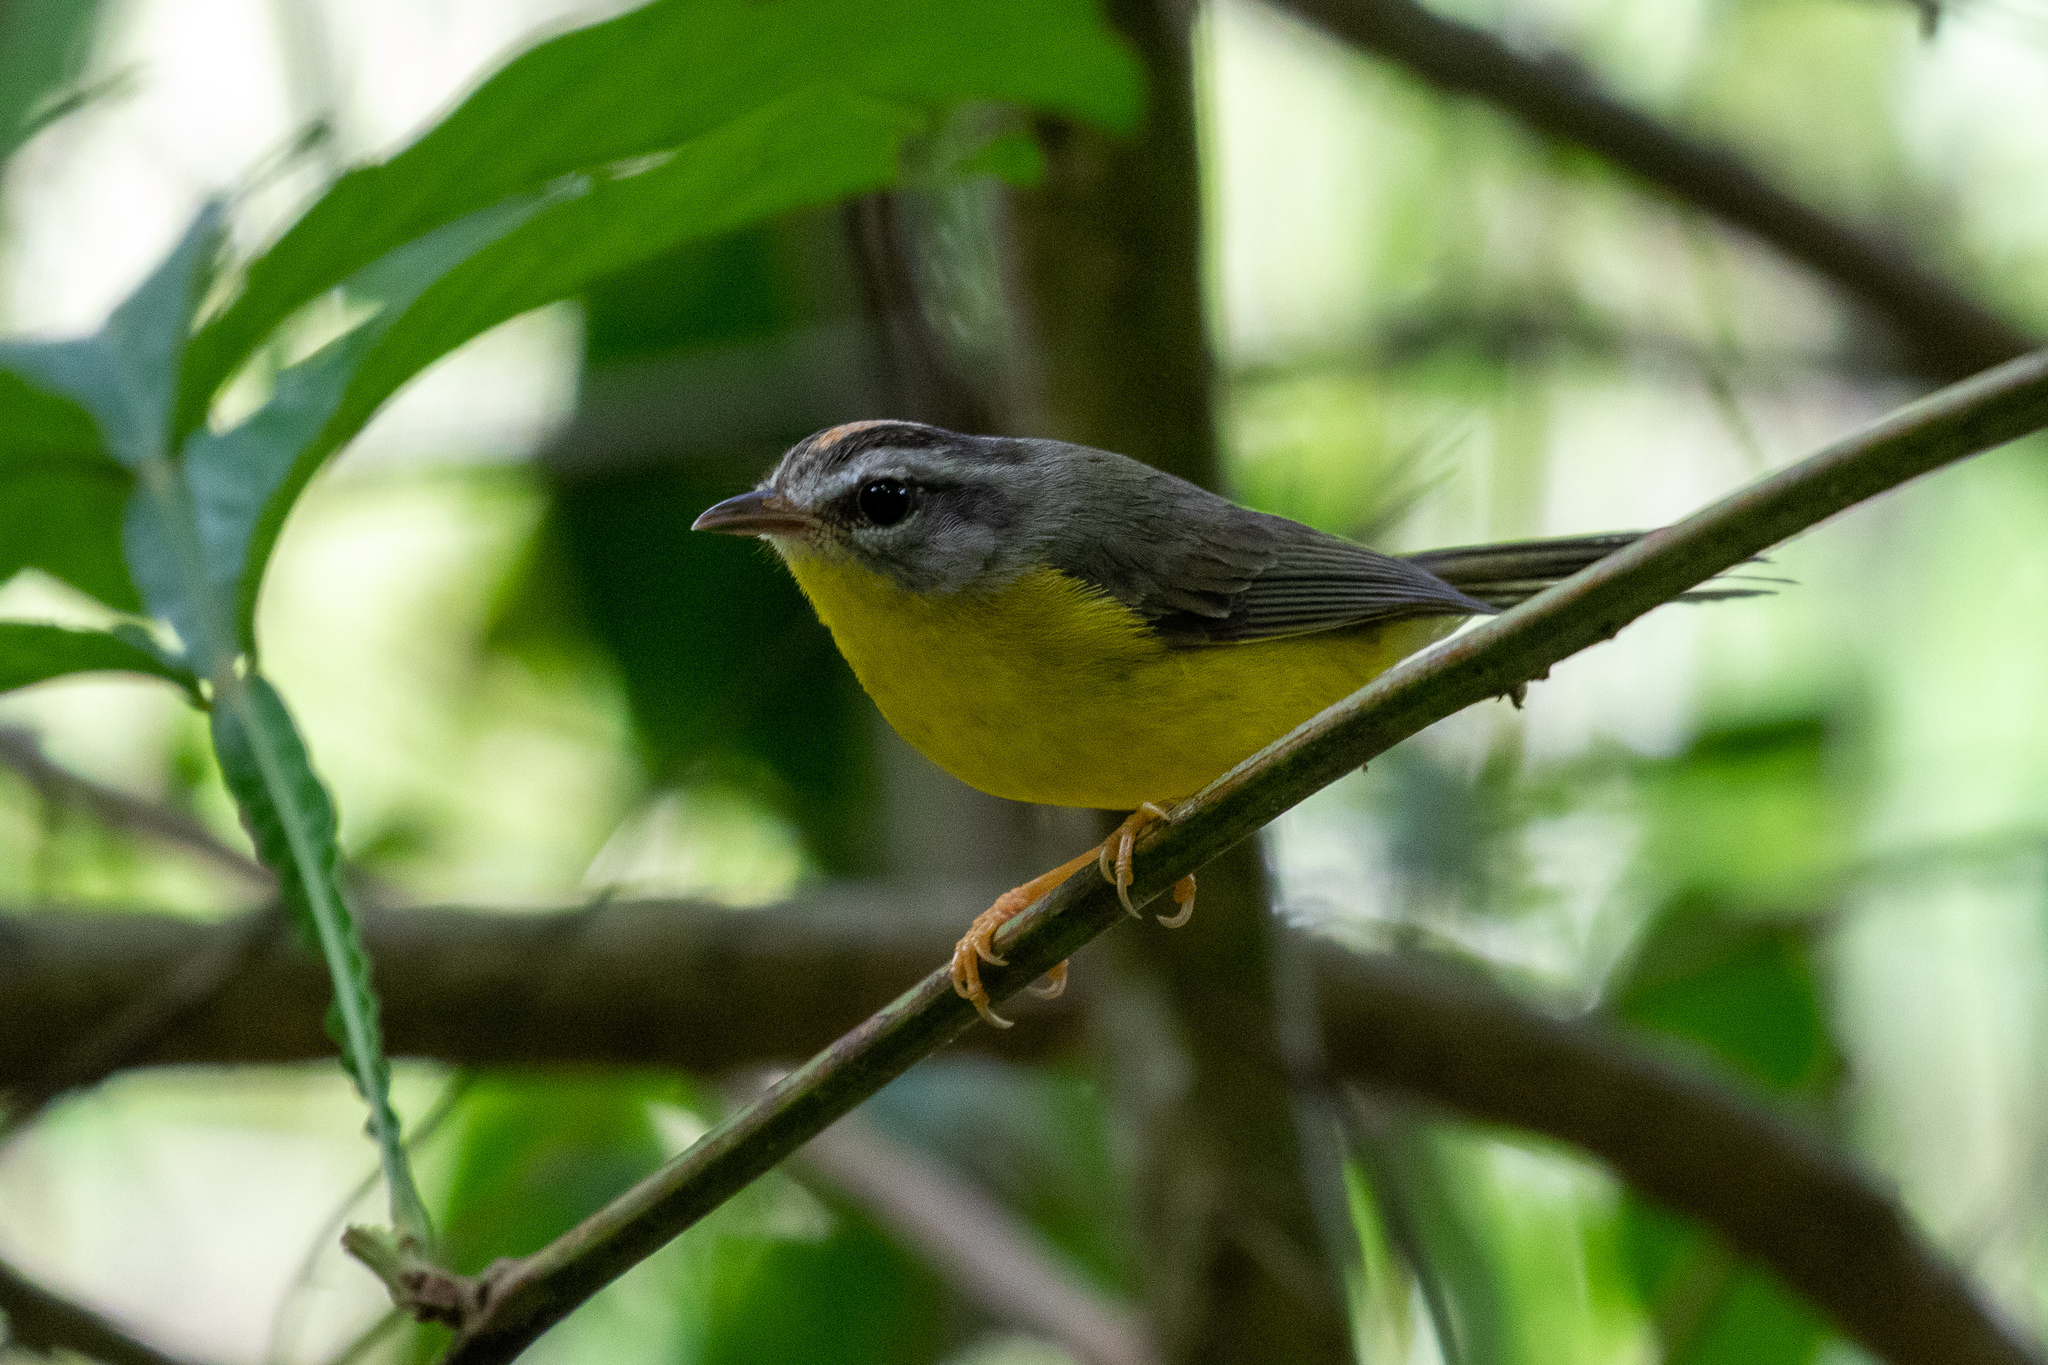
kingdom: Animalia
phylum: Chordata
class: Aves
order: Passeriformes
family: Parulidae
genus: Basileuterus
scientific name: Basileuterus culicivorus
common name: Golden-crowned warbler
